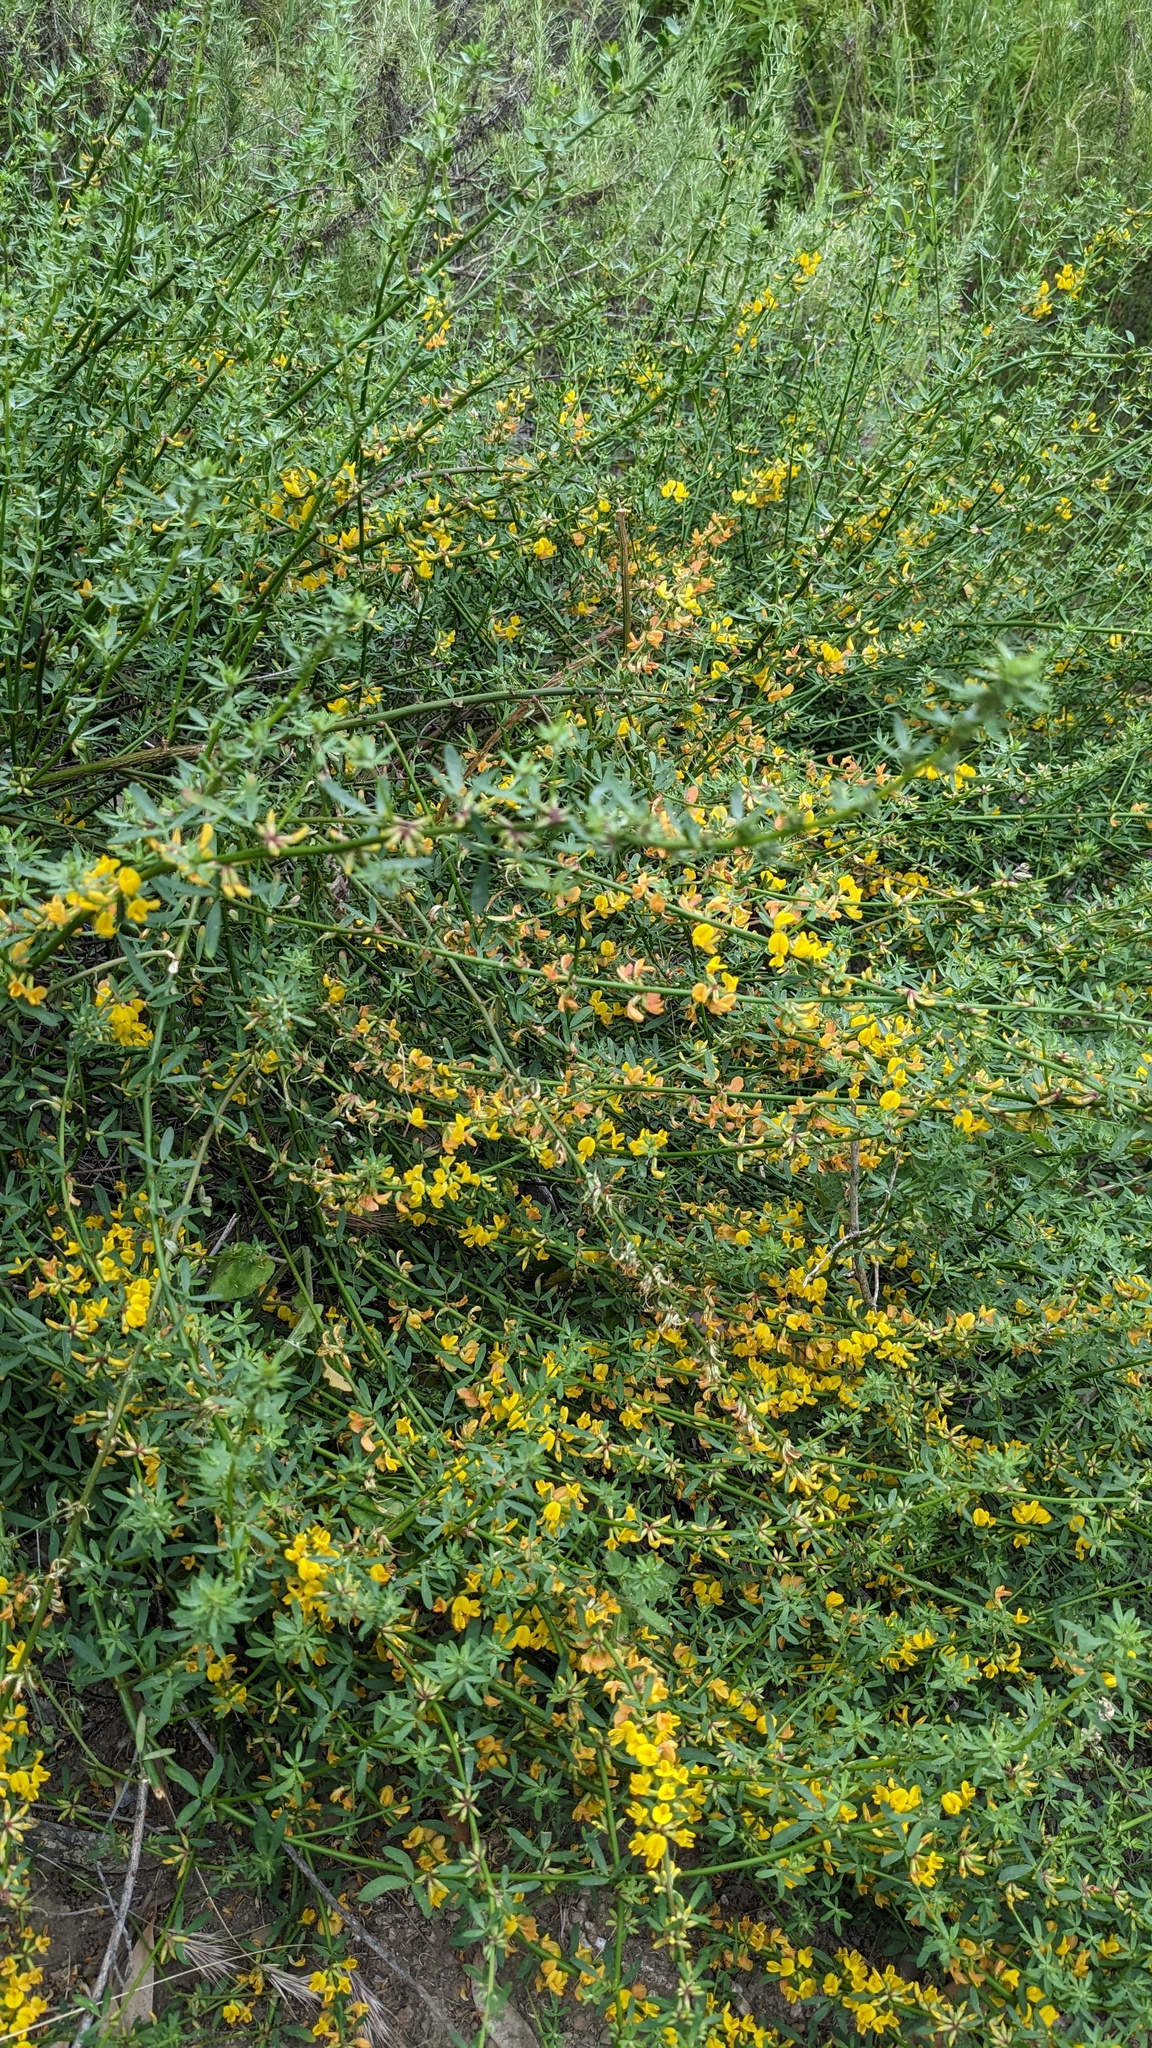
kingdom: Plantae
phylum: Tracheophyta
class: Magnoliopsida
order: Fabales
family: Fabaceae
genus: Acmispon
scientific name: Acmispon glaber
